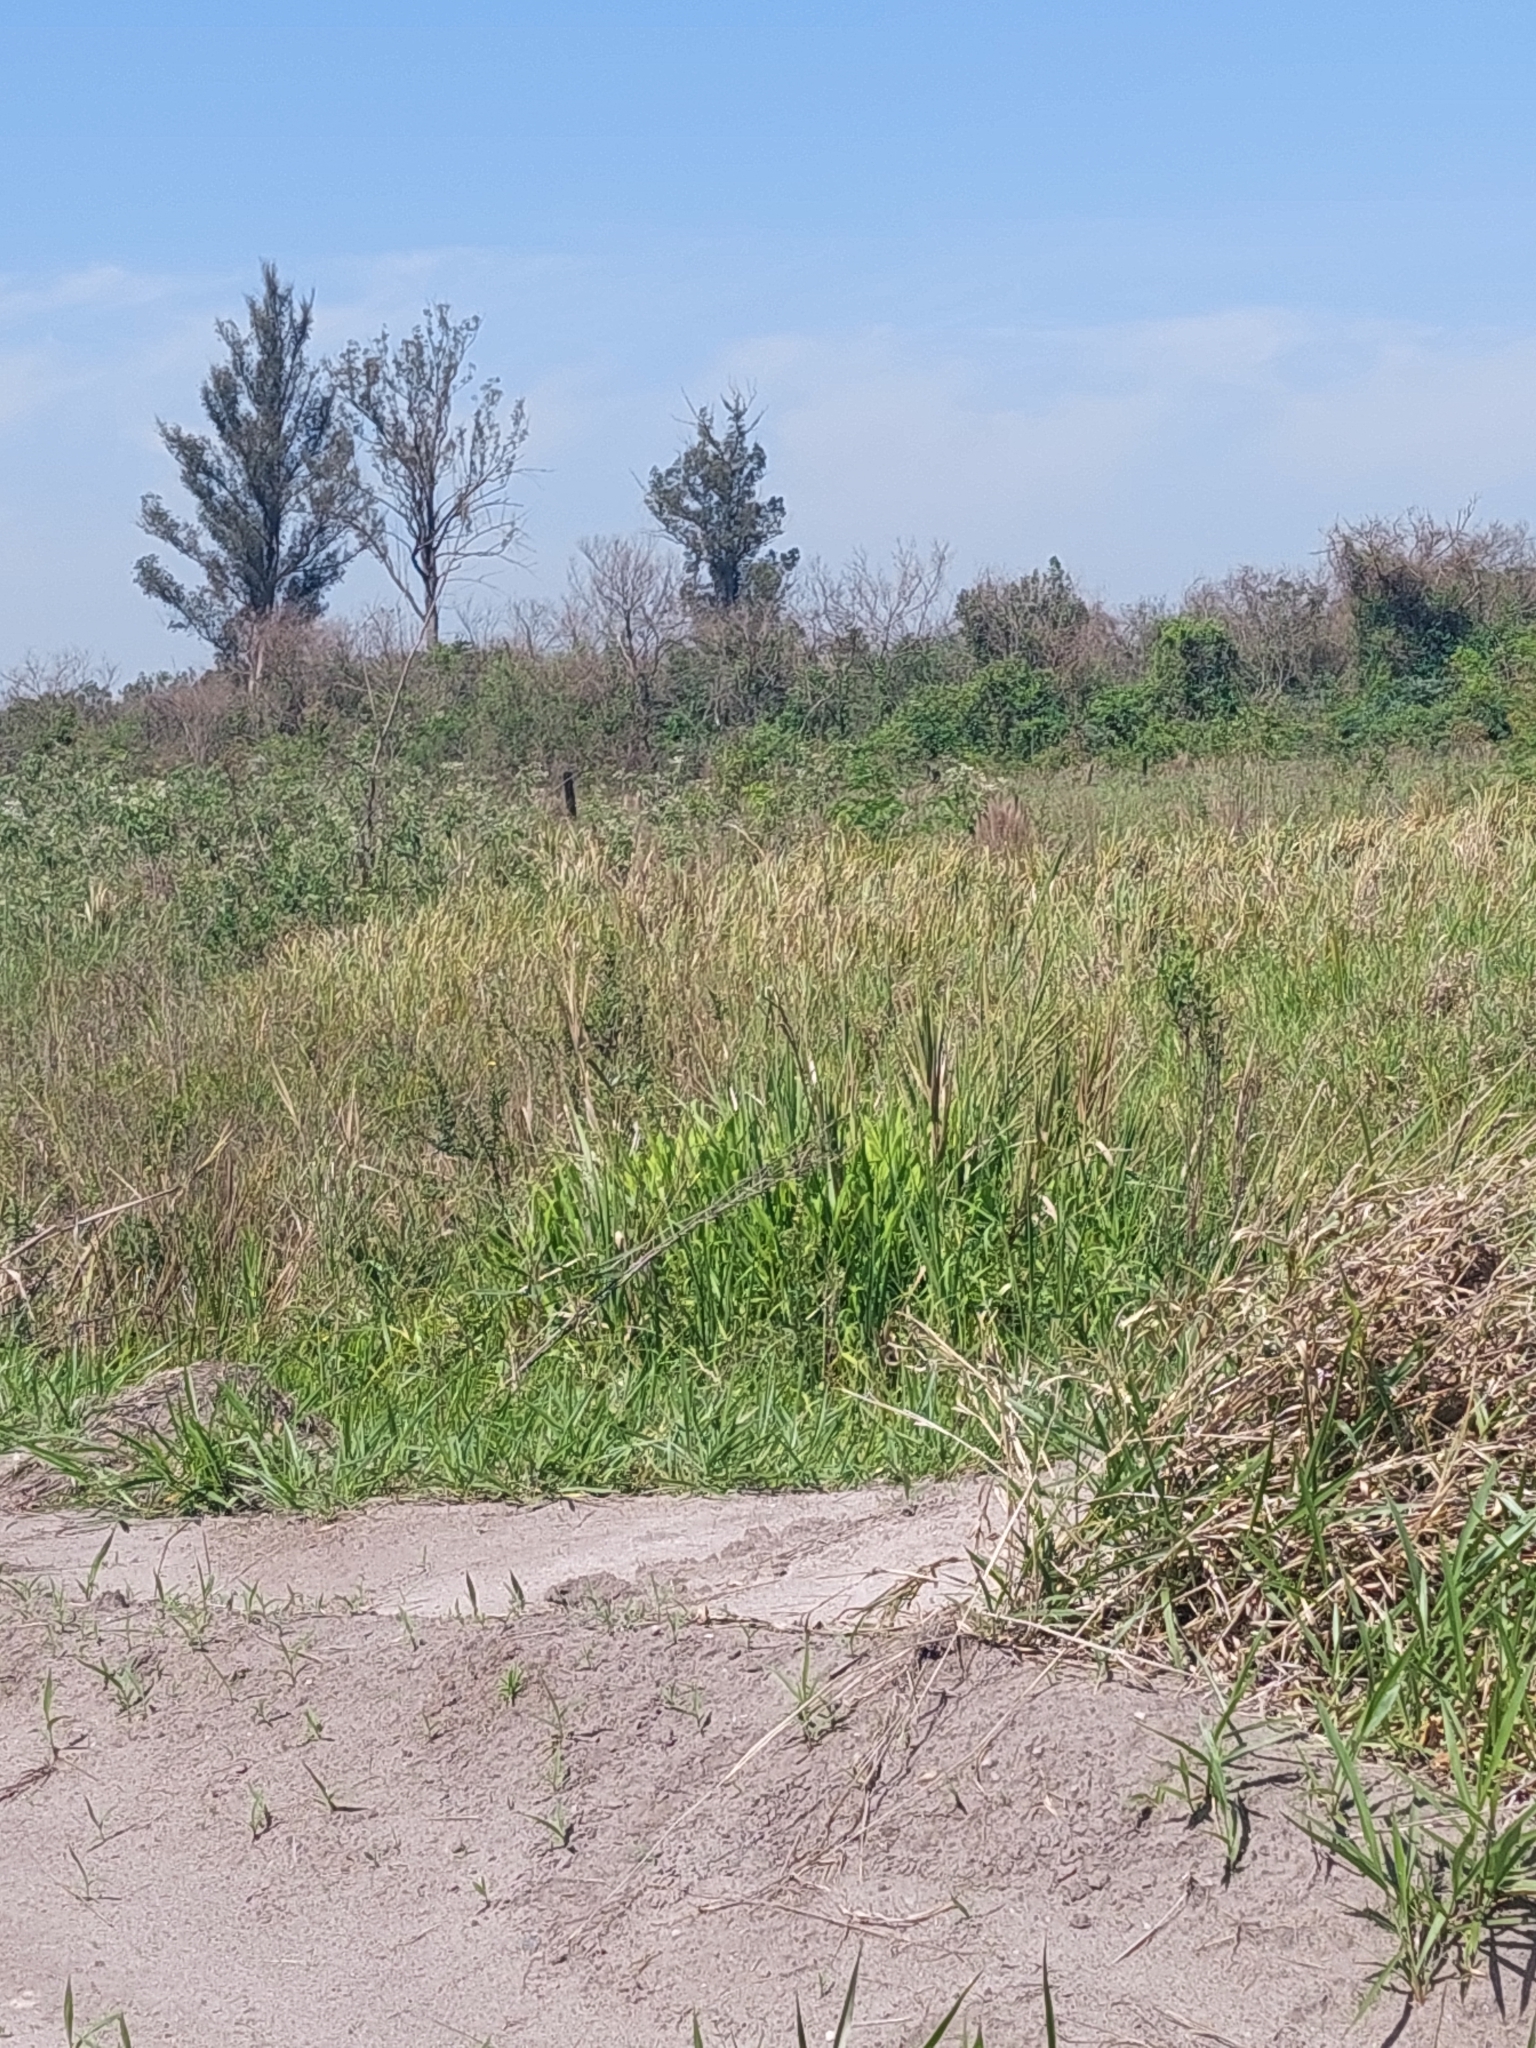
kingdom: Plantae
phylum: Tracheophyta
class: Liliopsida
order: Zingiberales
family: Zingiberaceae
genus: Hedychium
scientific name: Hedychium coronarium
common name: White garland-lily
